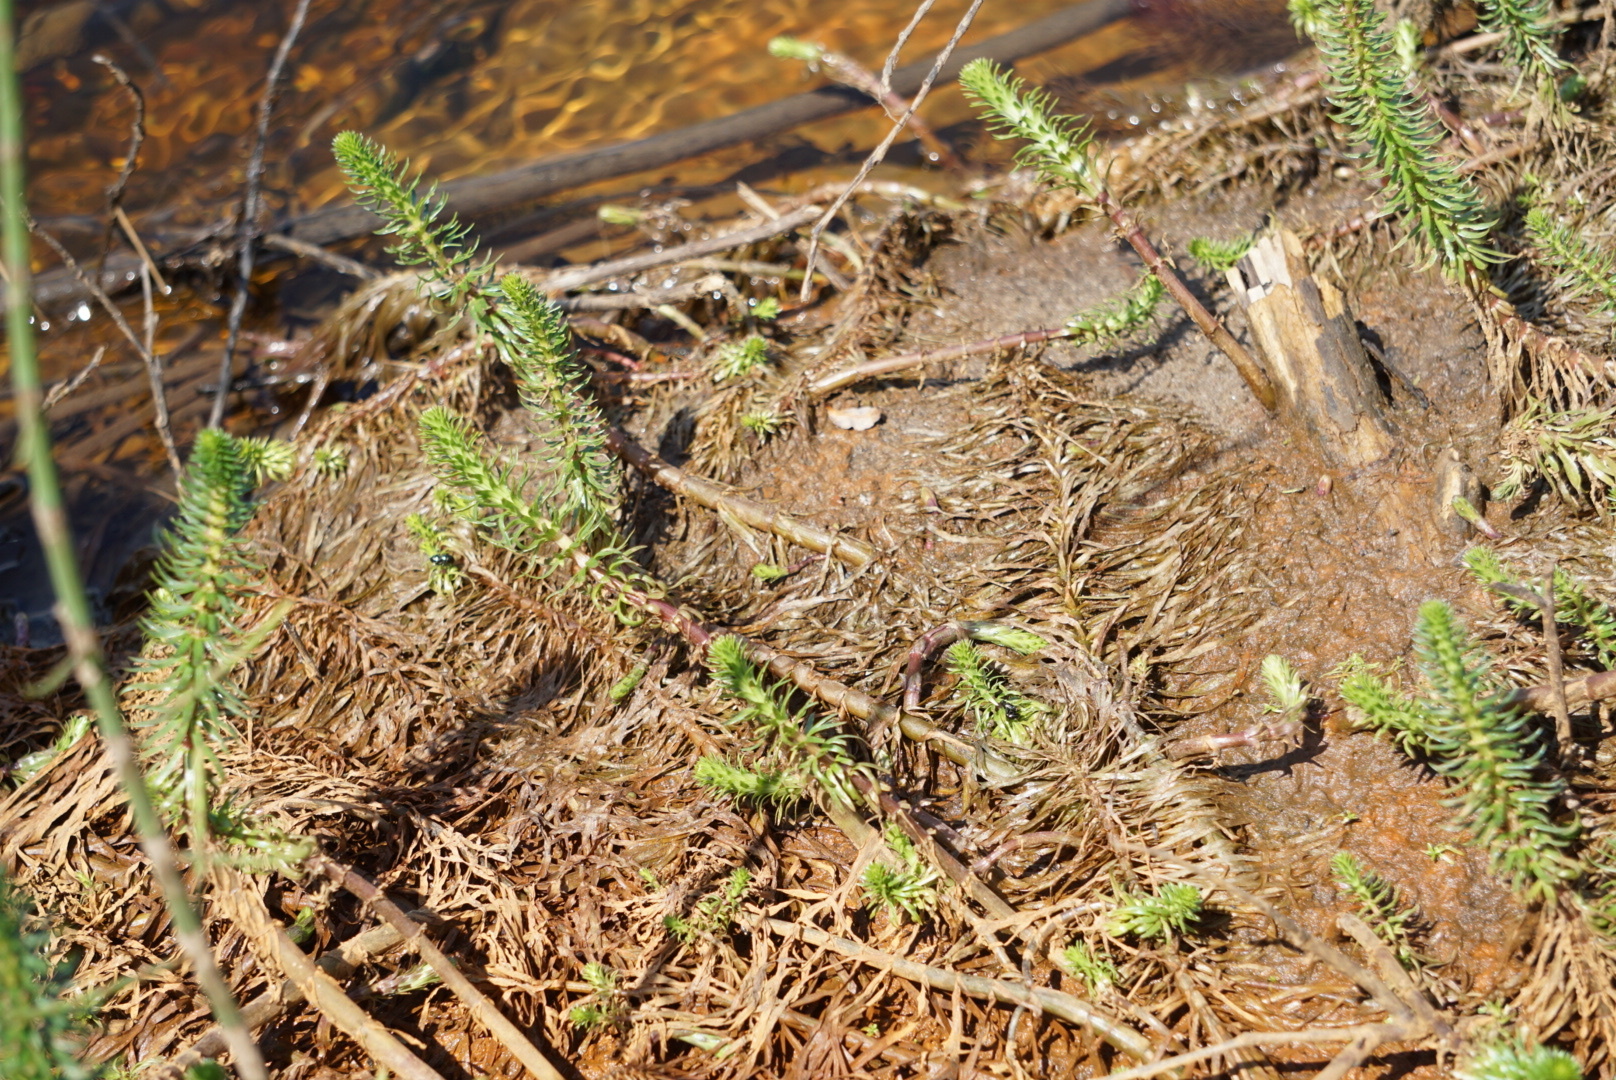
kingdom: Plantae
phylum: Tracheophyta
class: Magnoliopsida
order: Lamiales
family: Plantaginaceae
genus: Hippuris
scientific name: Hippuris vulgaris
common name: Mare's-tail
